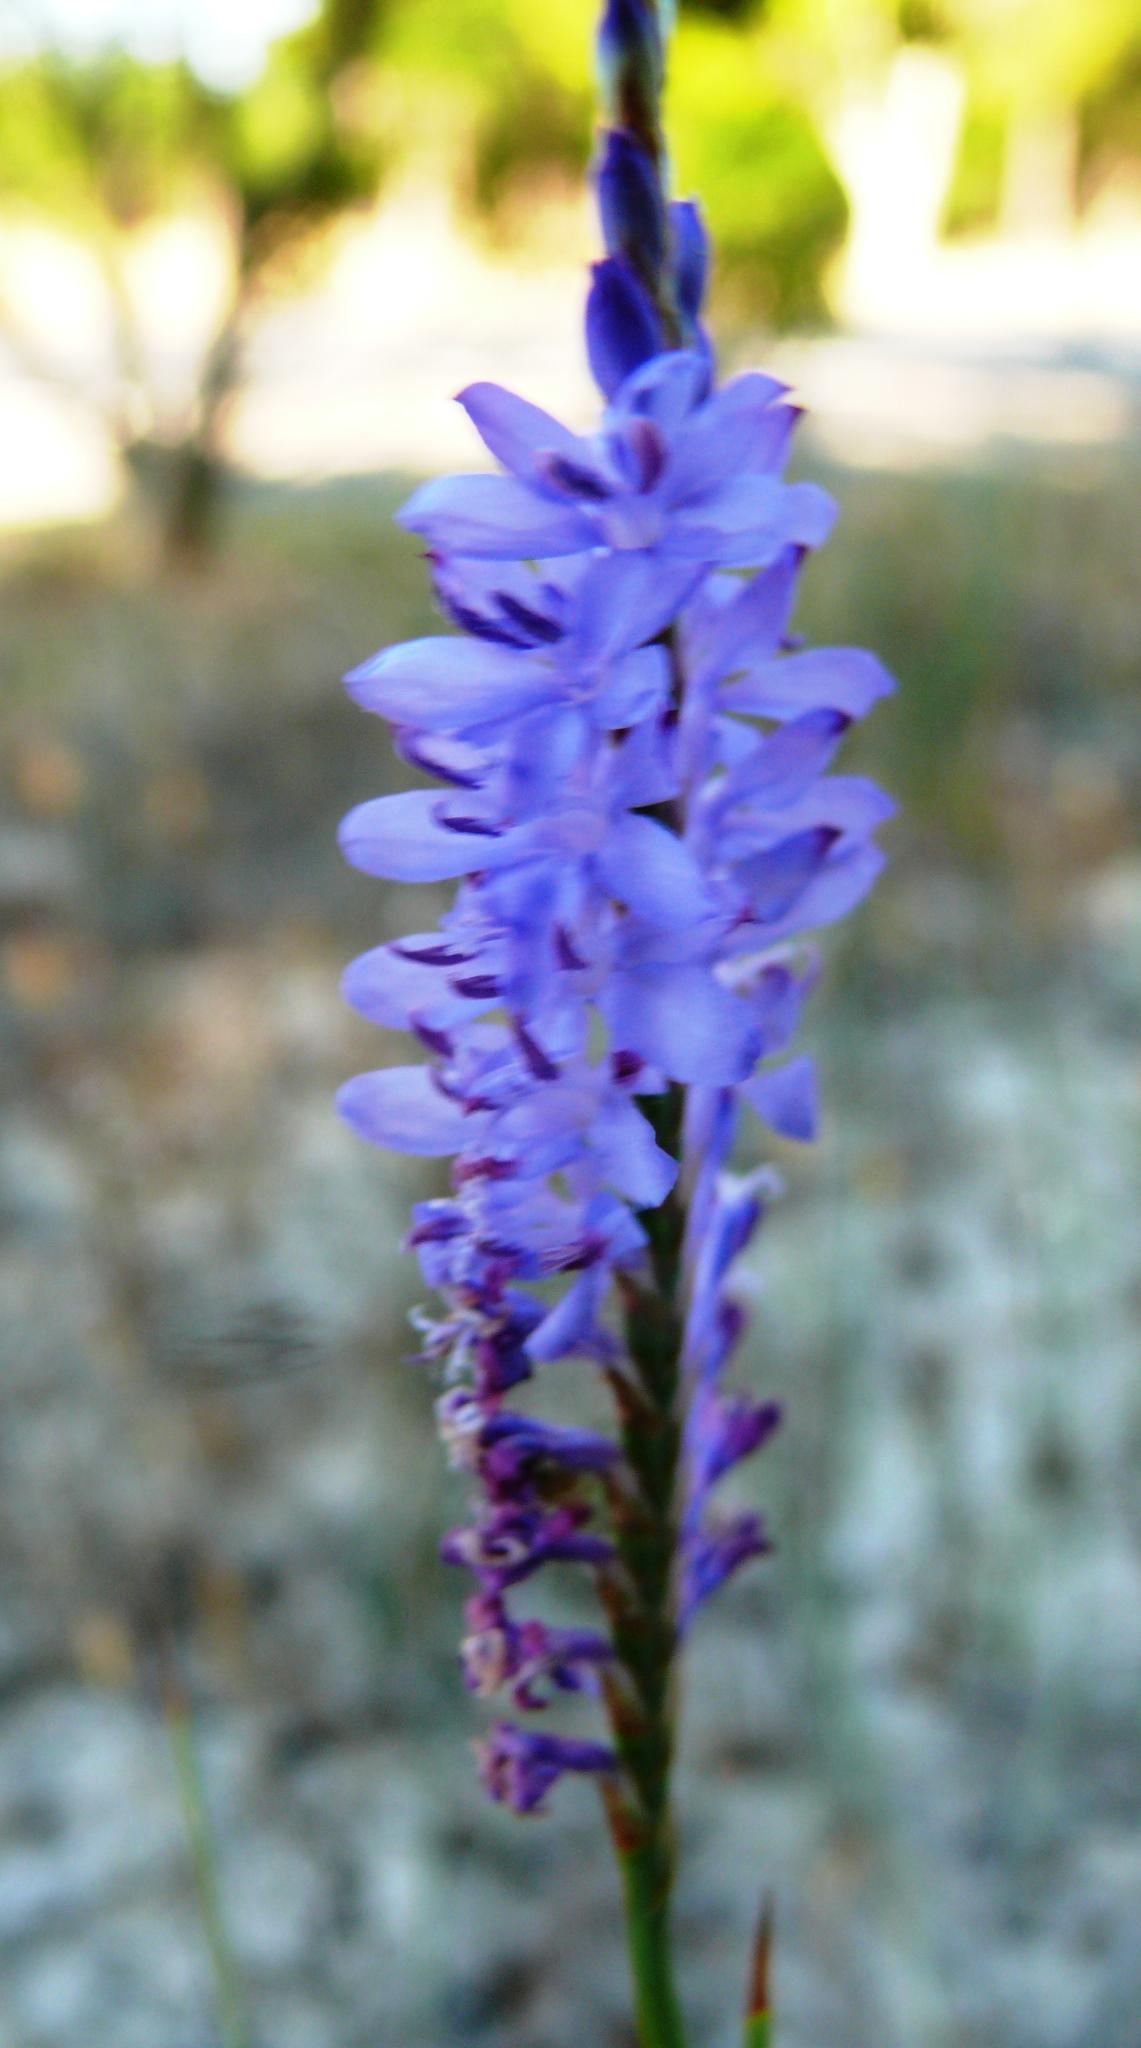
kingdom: Plantae
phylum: Tracheophyta
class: Liliopsida
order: Asparagales
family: Iridaceae
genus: Micranthus
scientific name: Micranthus plantagineus
